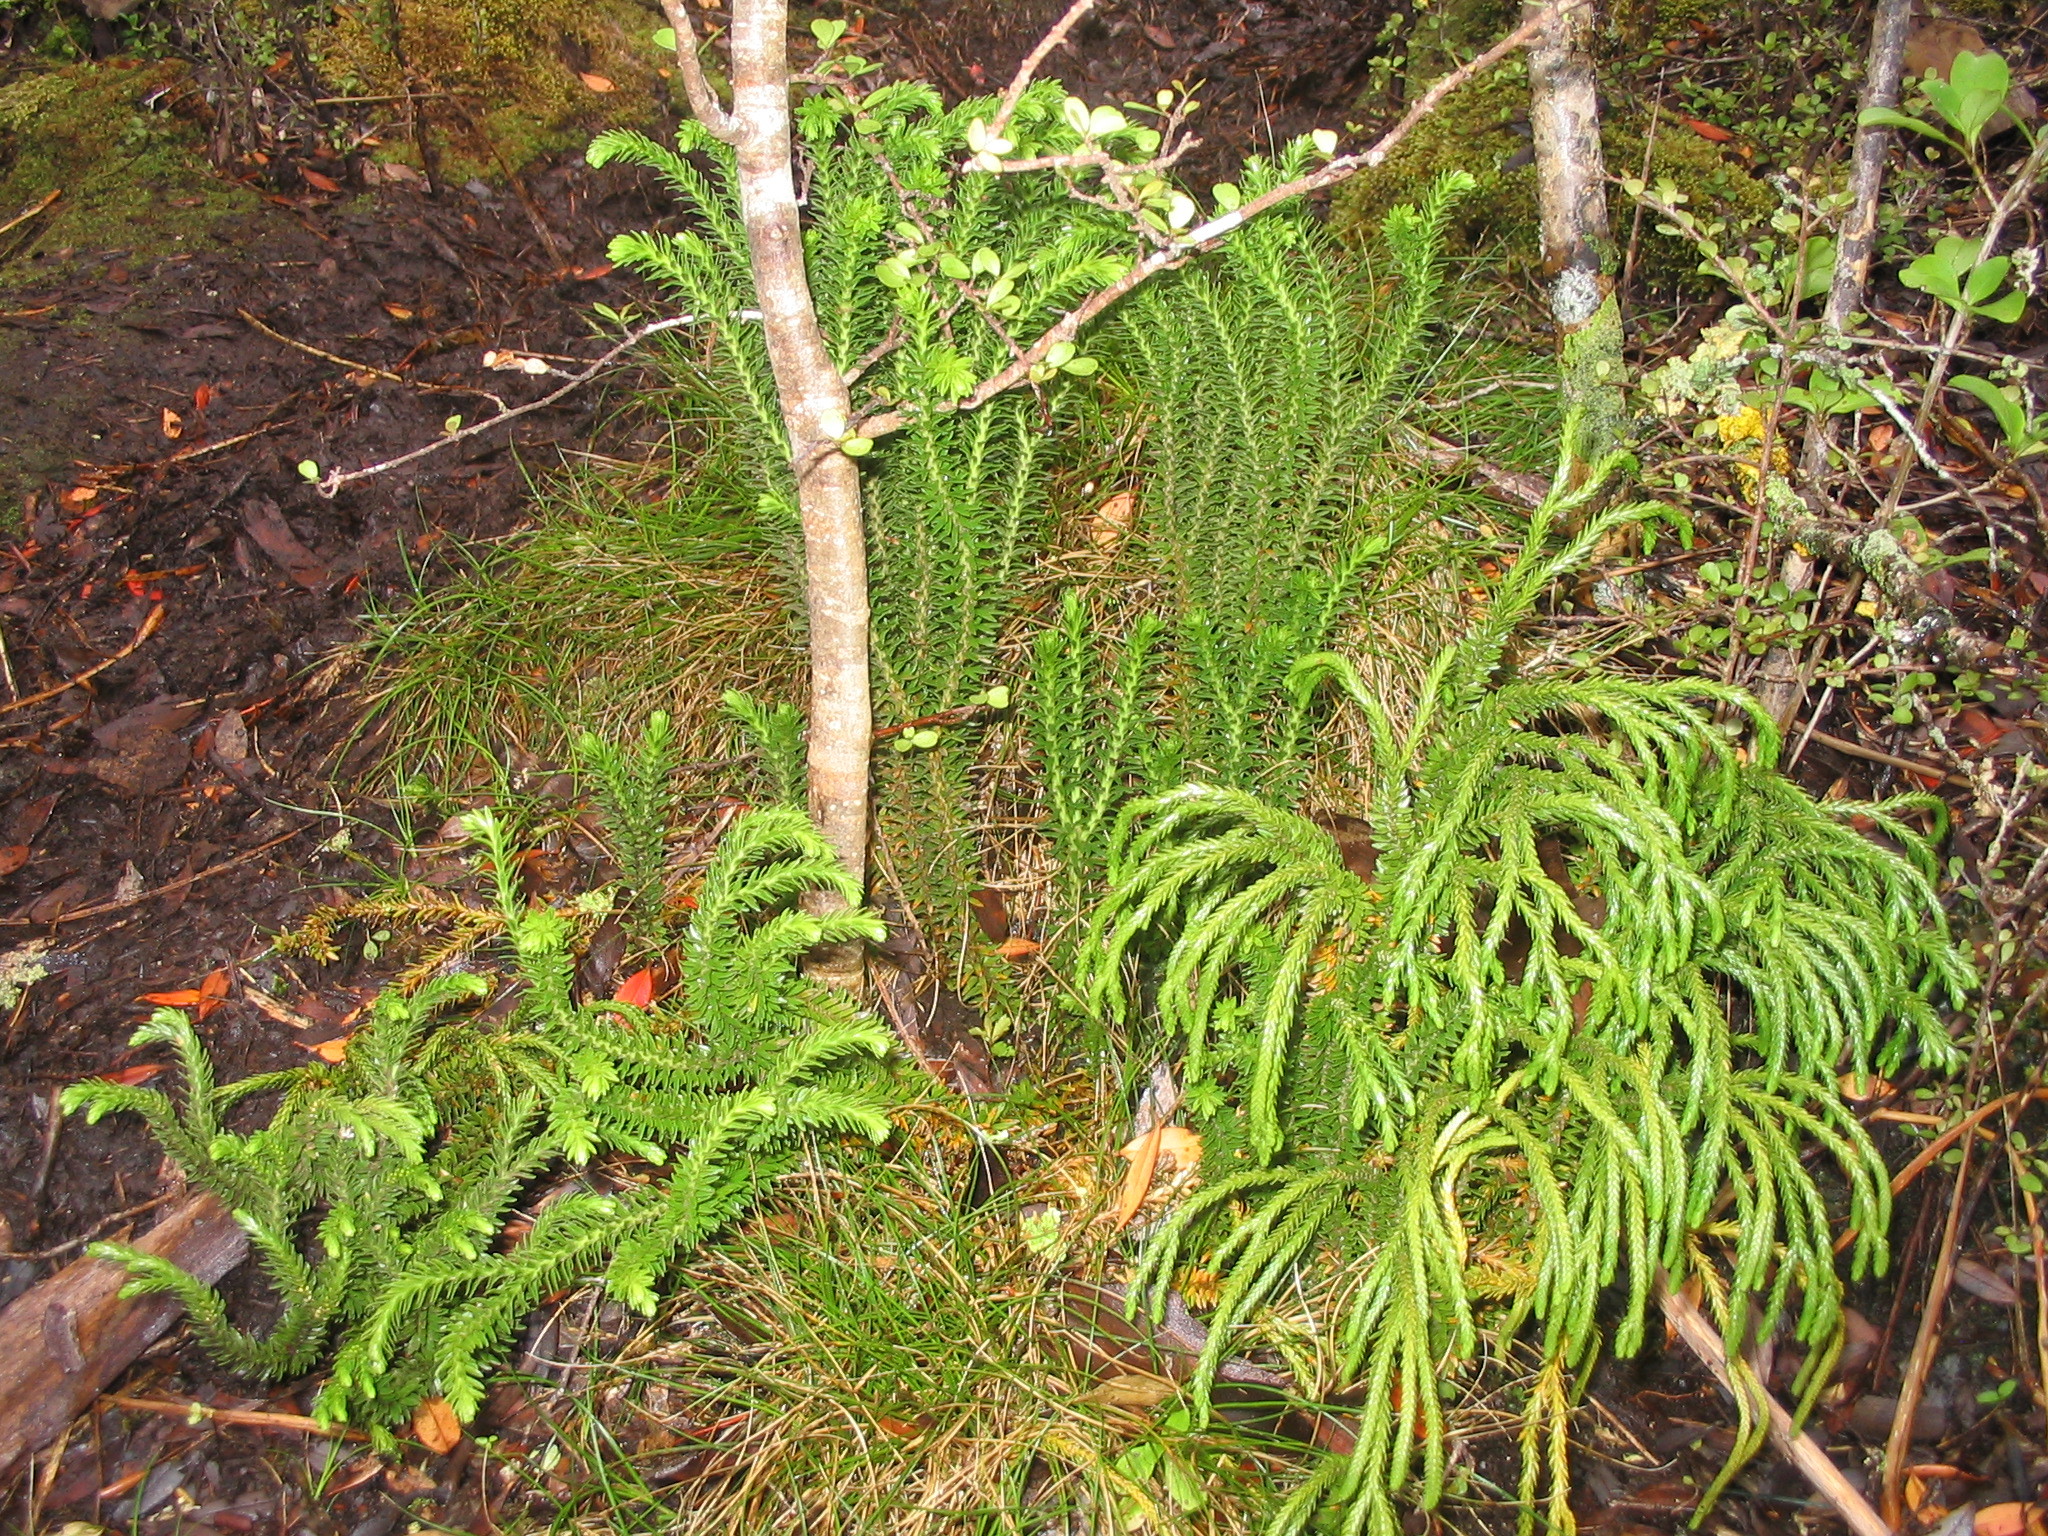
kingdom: Plantae
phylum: Tracheophyta
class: Lycopodiopsida
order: Lycopodiales
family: Lycopodiaceae
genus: Phlegmariurus
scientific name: Phlegmariurus varius
